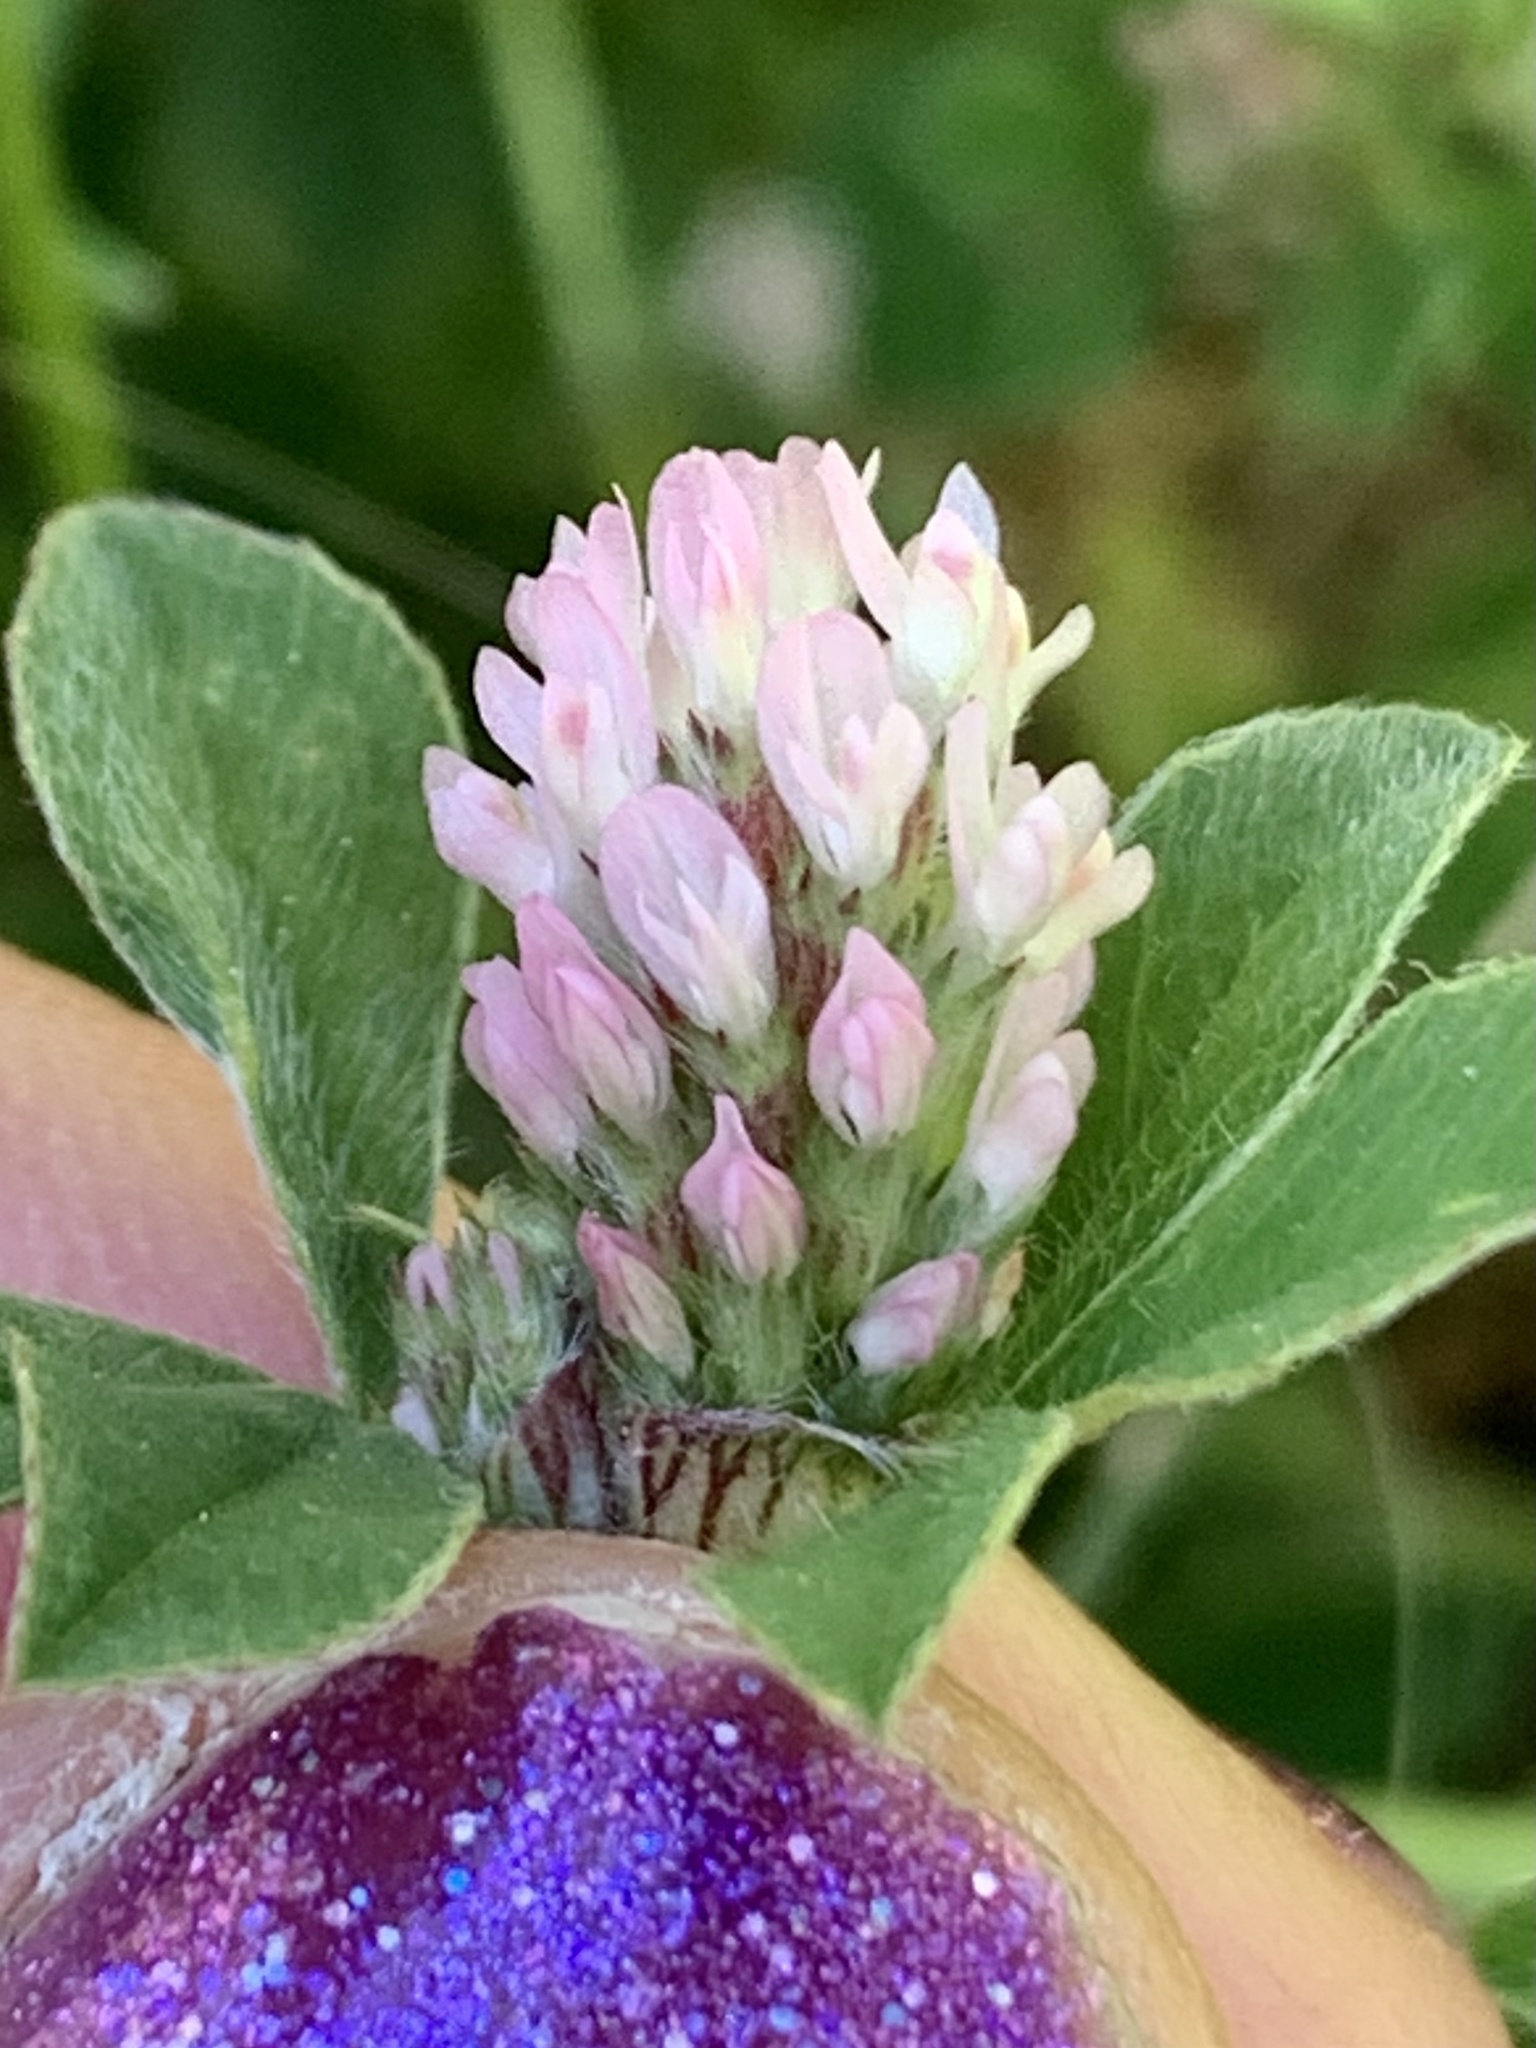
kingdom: Plantae
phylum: Tracheophyta
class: Magnoliopsida
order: Fabales
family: Fabaceae
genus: Trifolium
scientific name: Trifolium striatum
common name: Knotted clover
